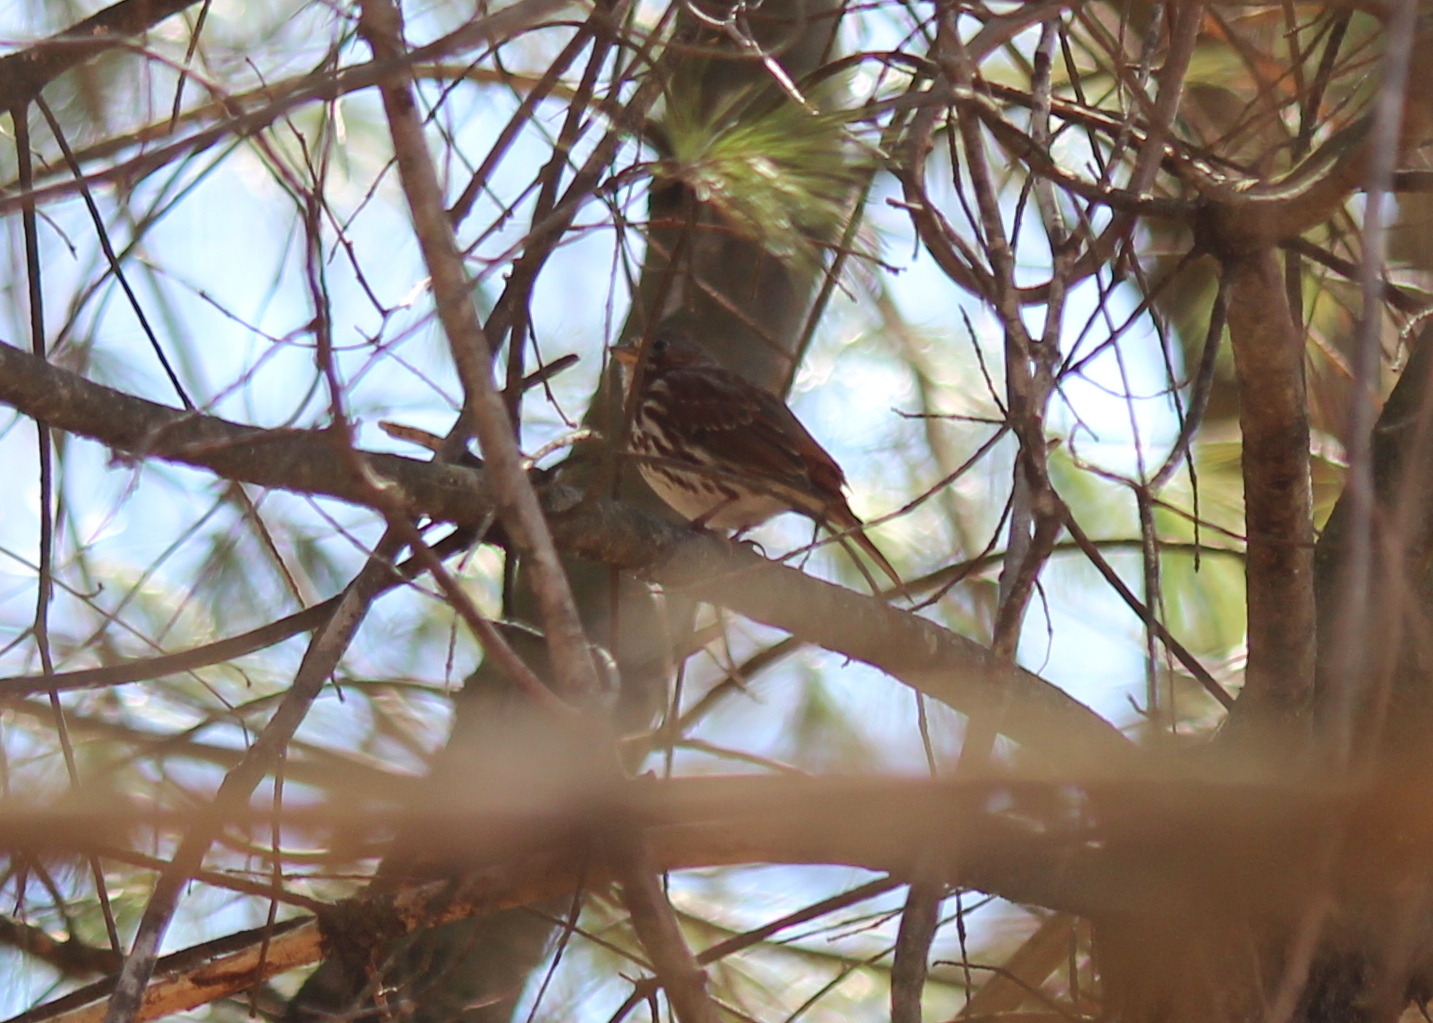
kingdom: Animalia
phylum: Chordata
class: Aves
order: Passeriformes
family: Passerellidae
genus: Passerella
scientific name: Passerella iliaca
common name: Fox sparrow
